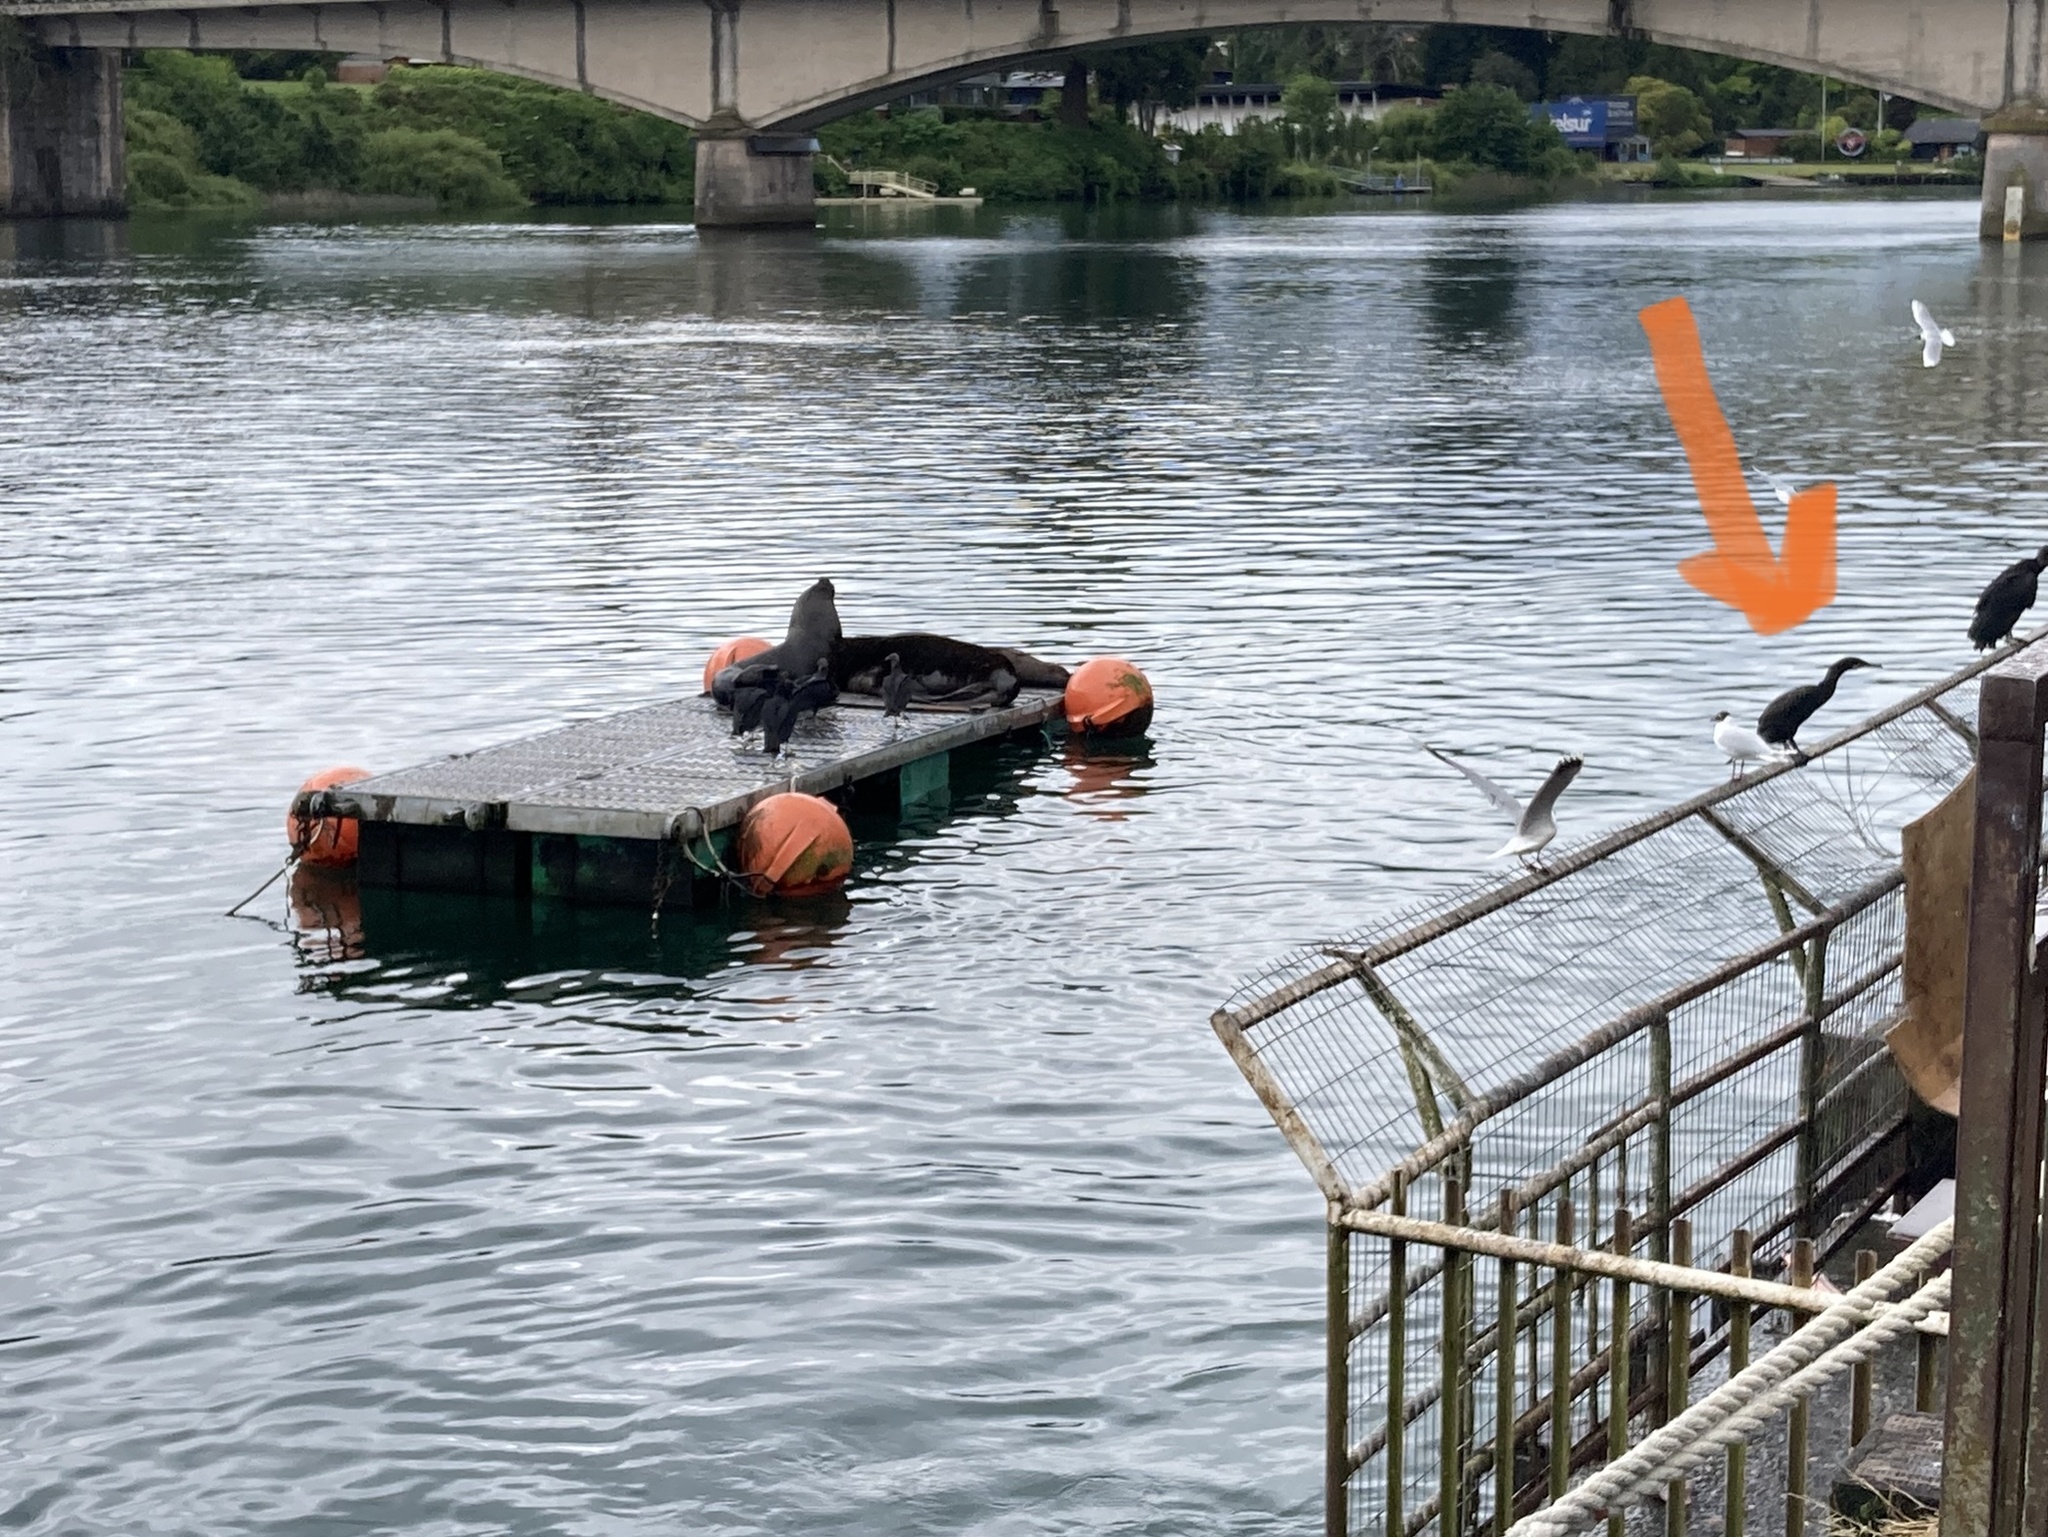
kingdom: Animalia
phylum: Chordata
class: Aves
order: Suliformes
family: Phalacrocoracidae
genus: Phalacrocorax
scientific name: Phalacrocorax brasilianus
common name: Neotropic cormorant
